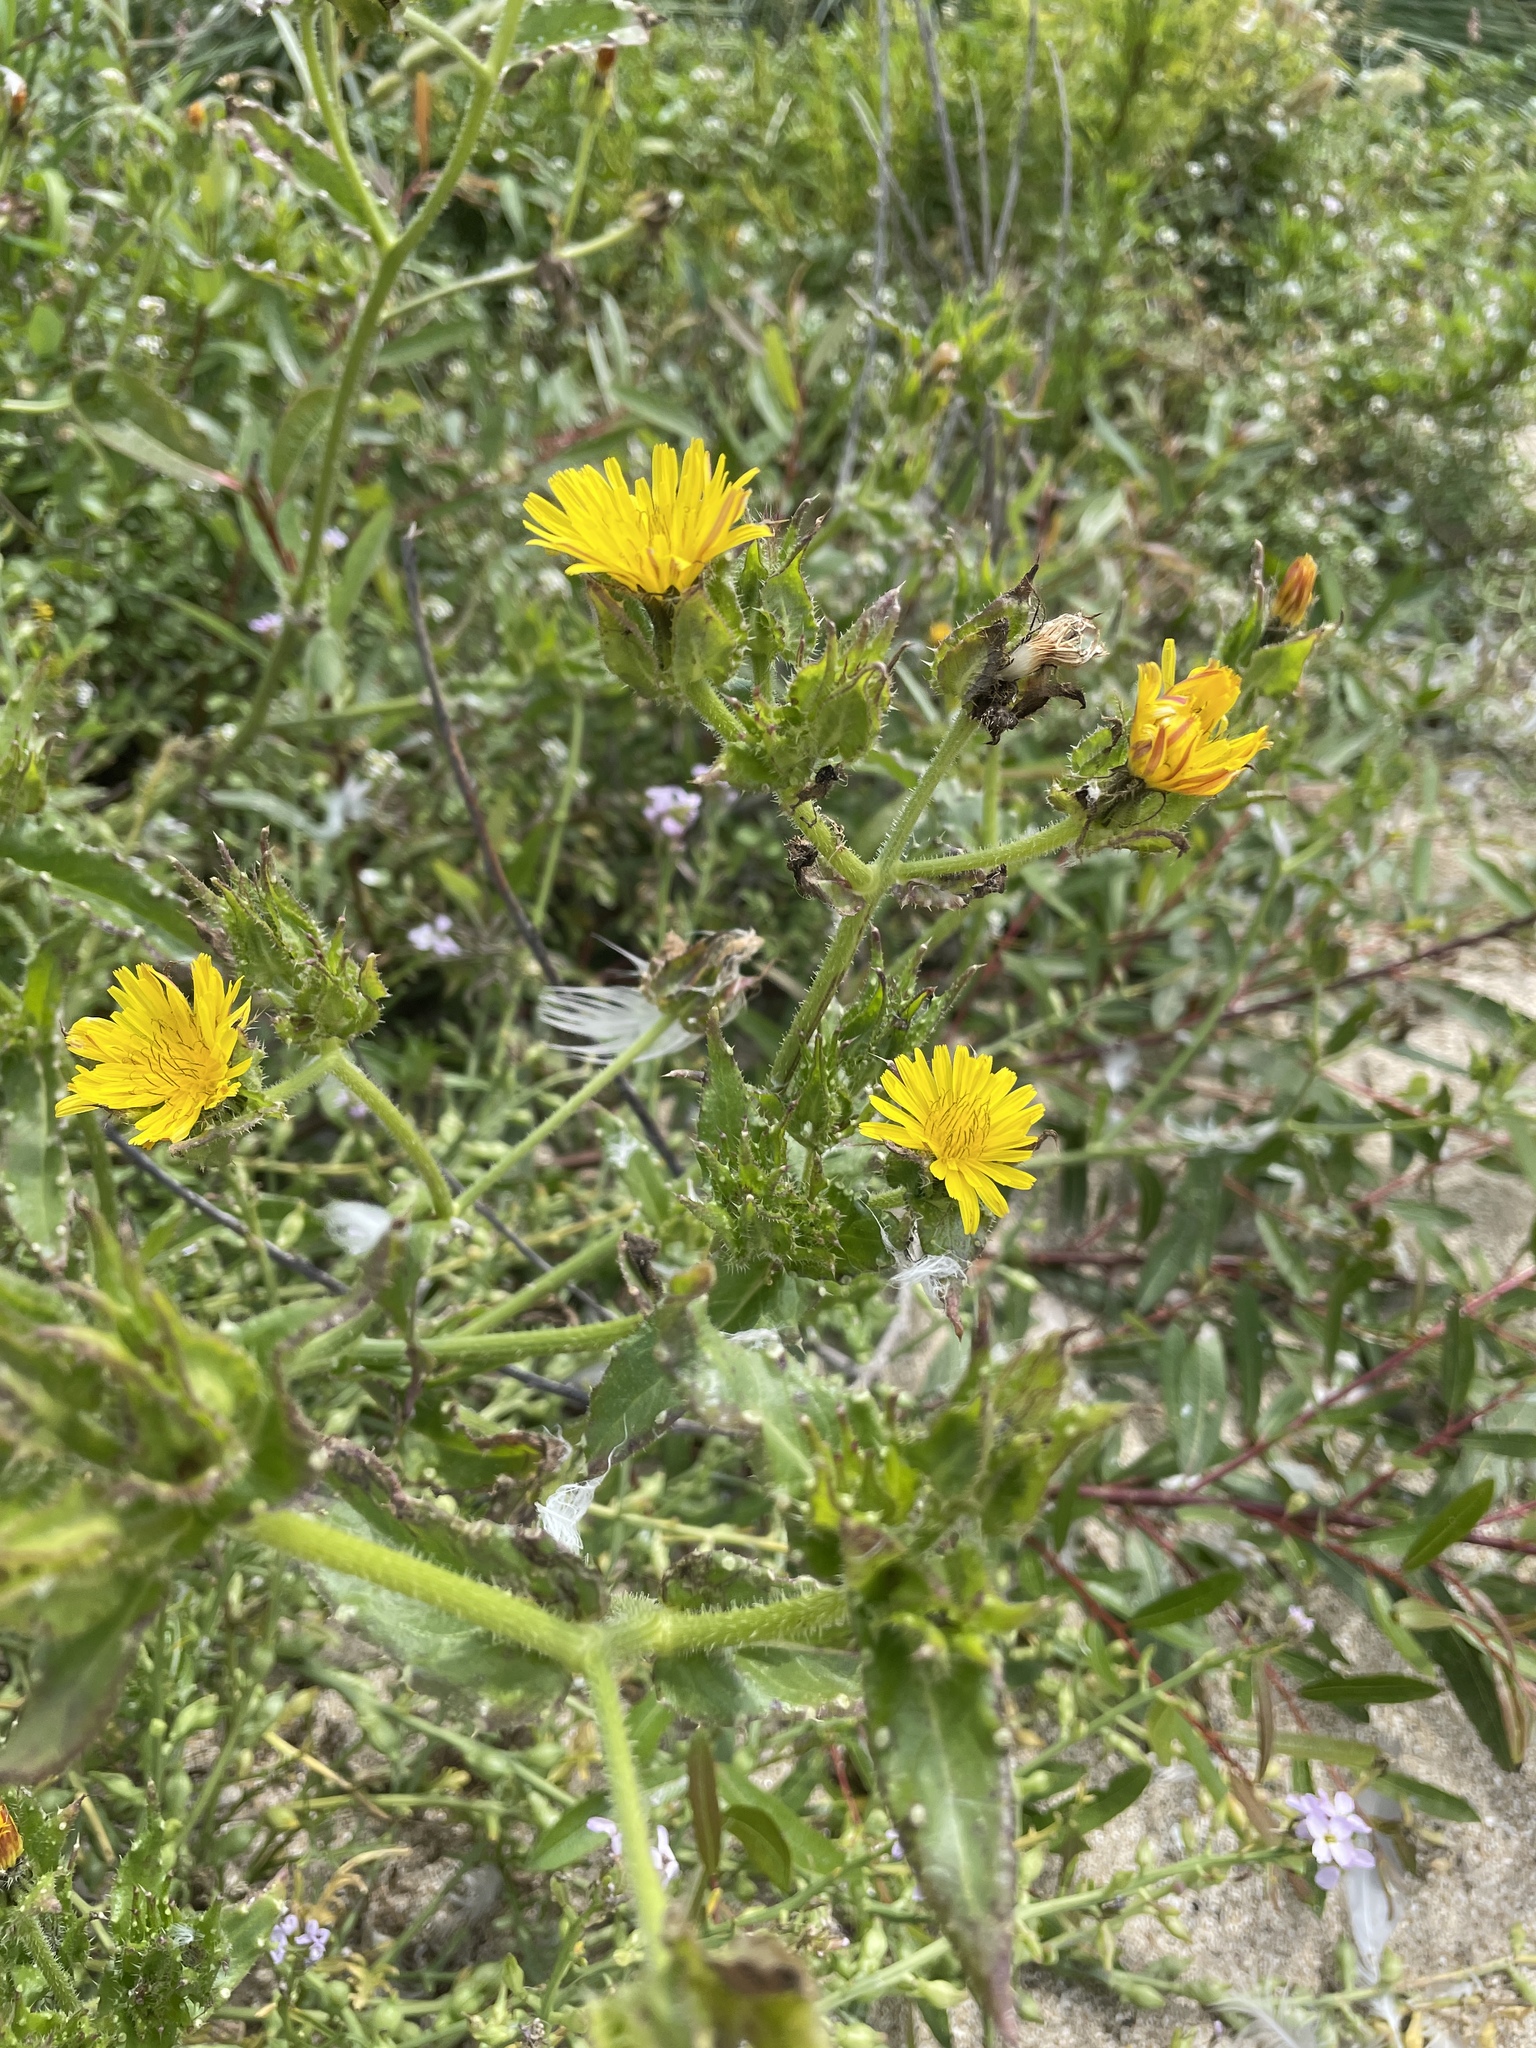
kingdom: Plantae
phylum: Tracheophyta
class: Magnoliopsida
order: Asterales
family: Asteraceae
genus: Helminthotheca
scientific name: Helminthotheca echioides
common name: Ox-tongue
